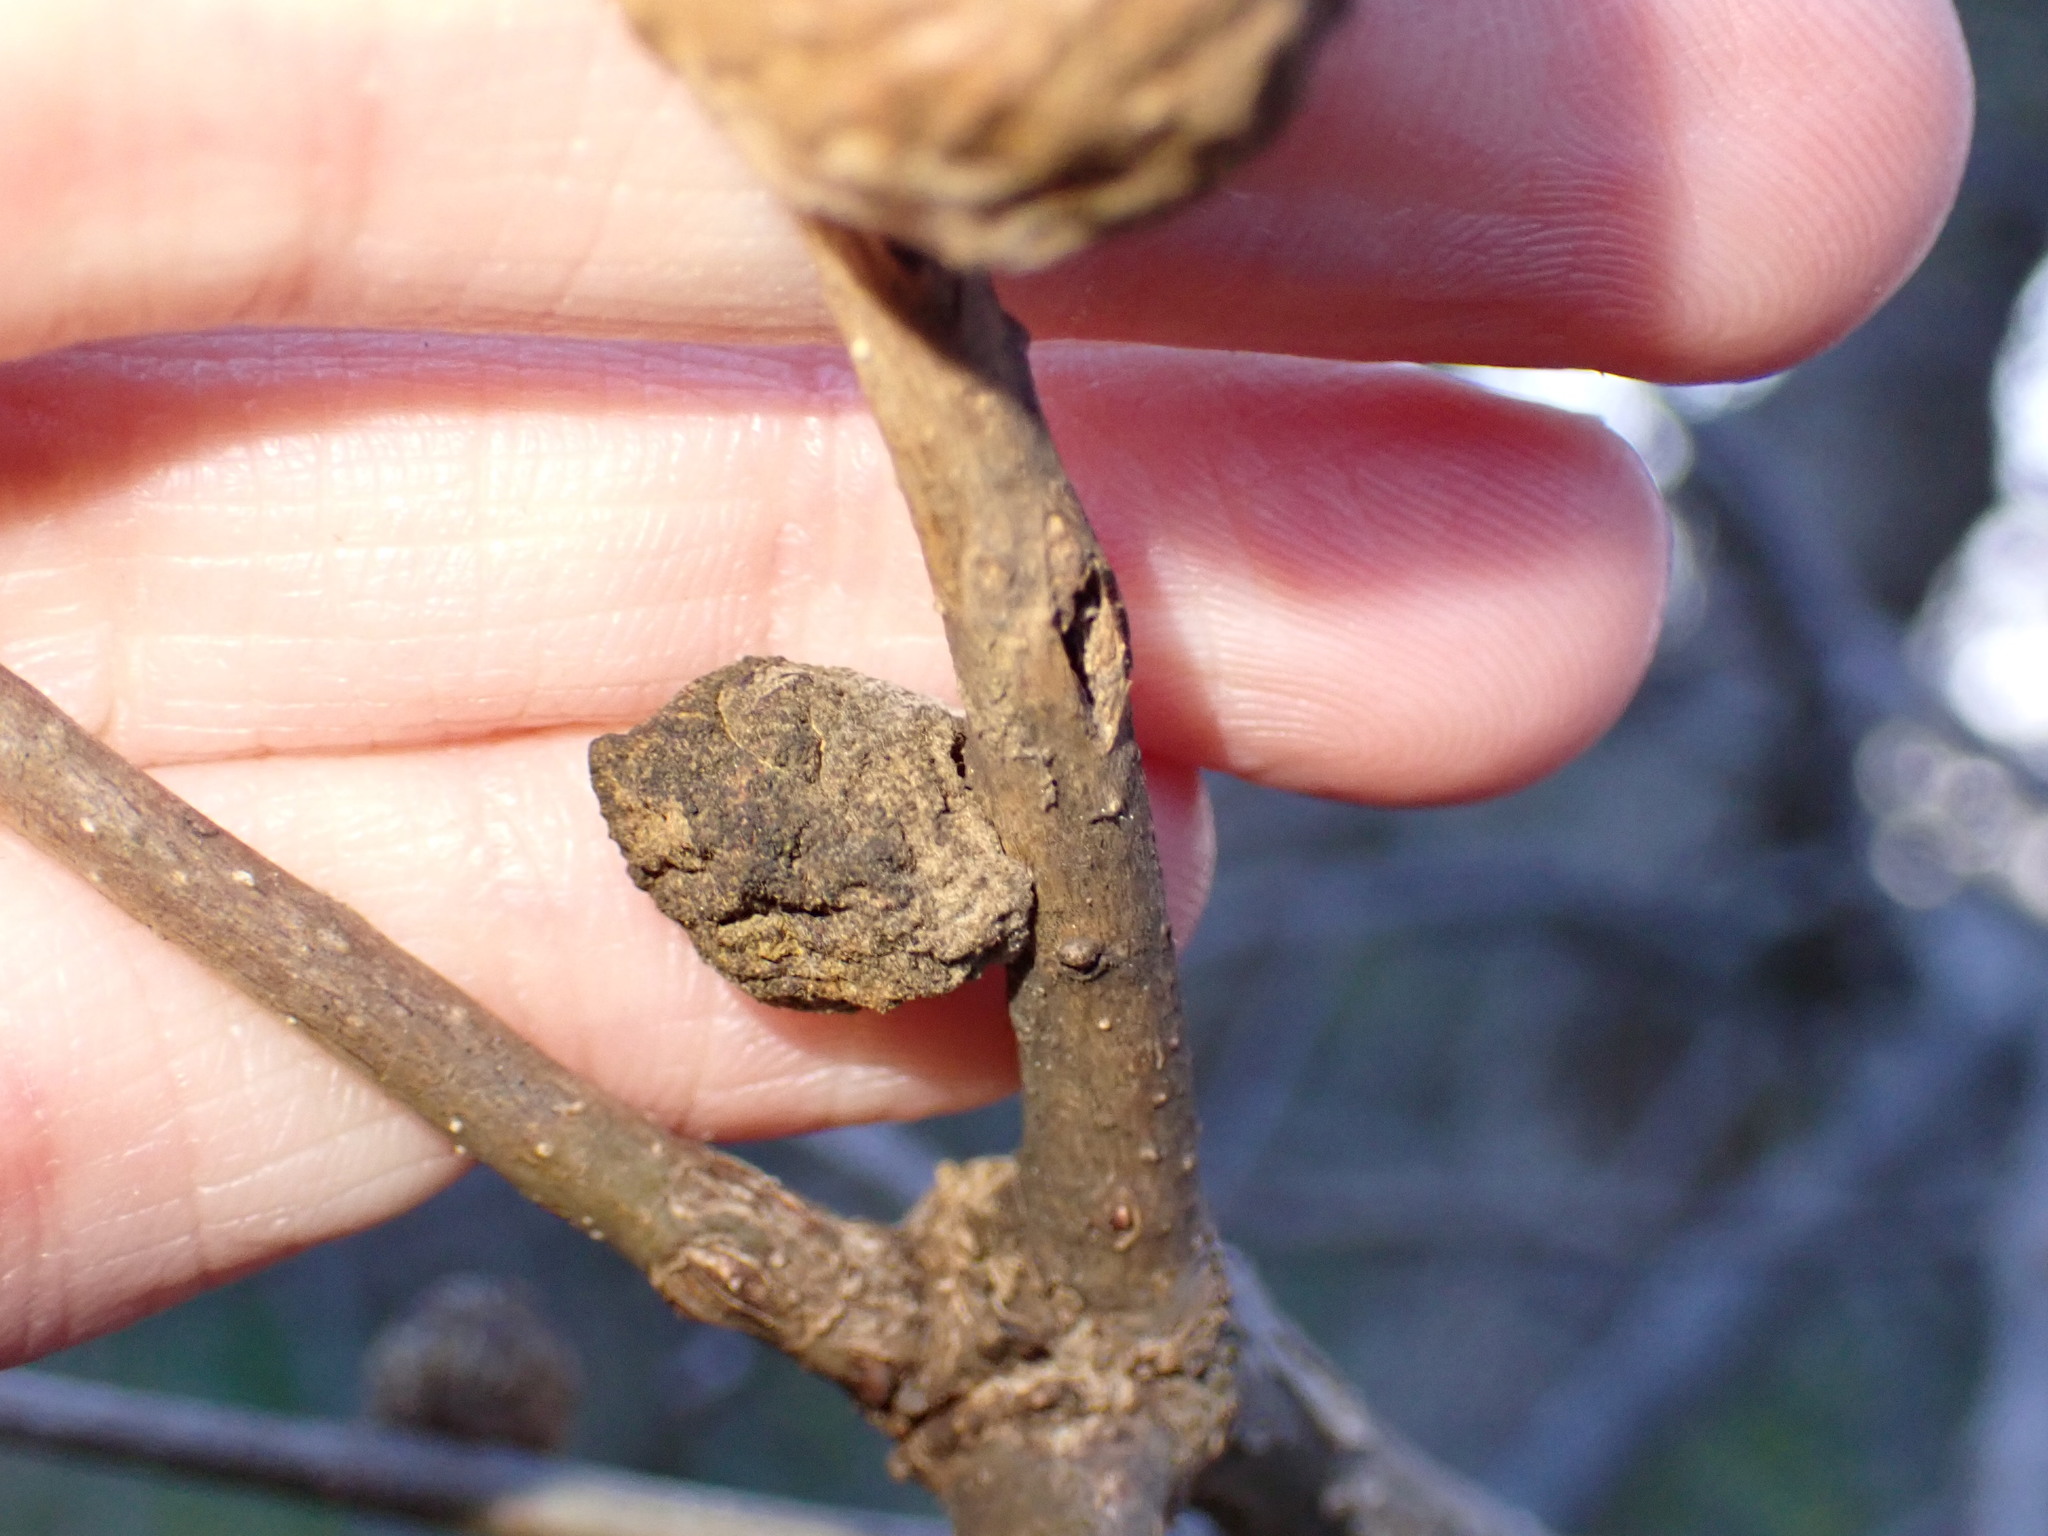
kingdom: Animalia
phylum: Arthropoda
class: Insecta
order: Hymenoptera
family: Cynipidae
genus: Disholcaspis
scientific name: Disholcaspis
